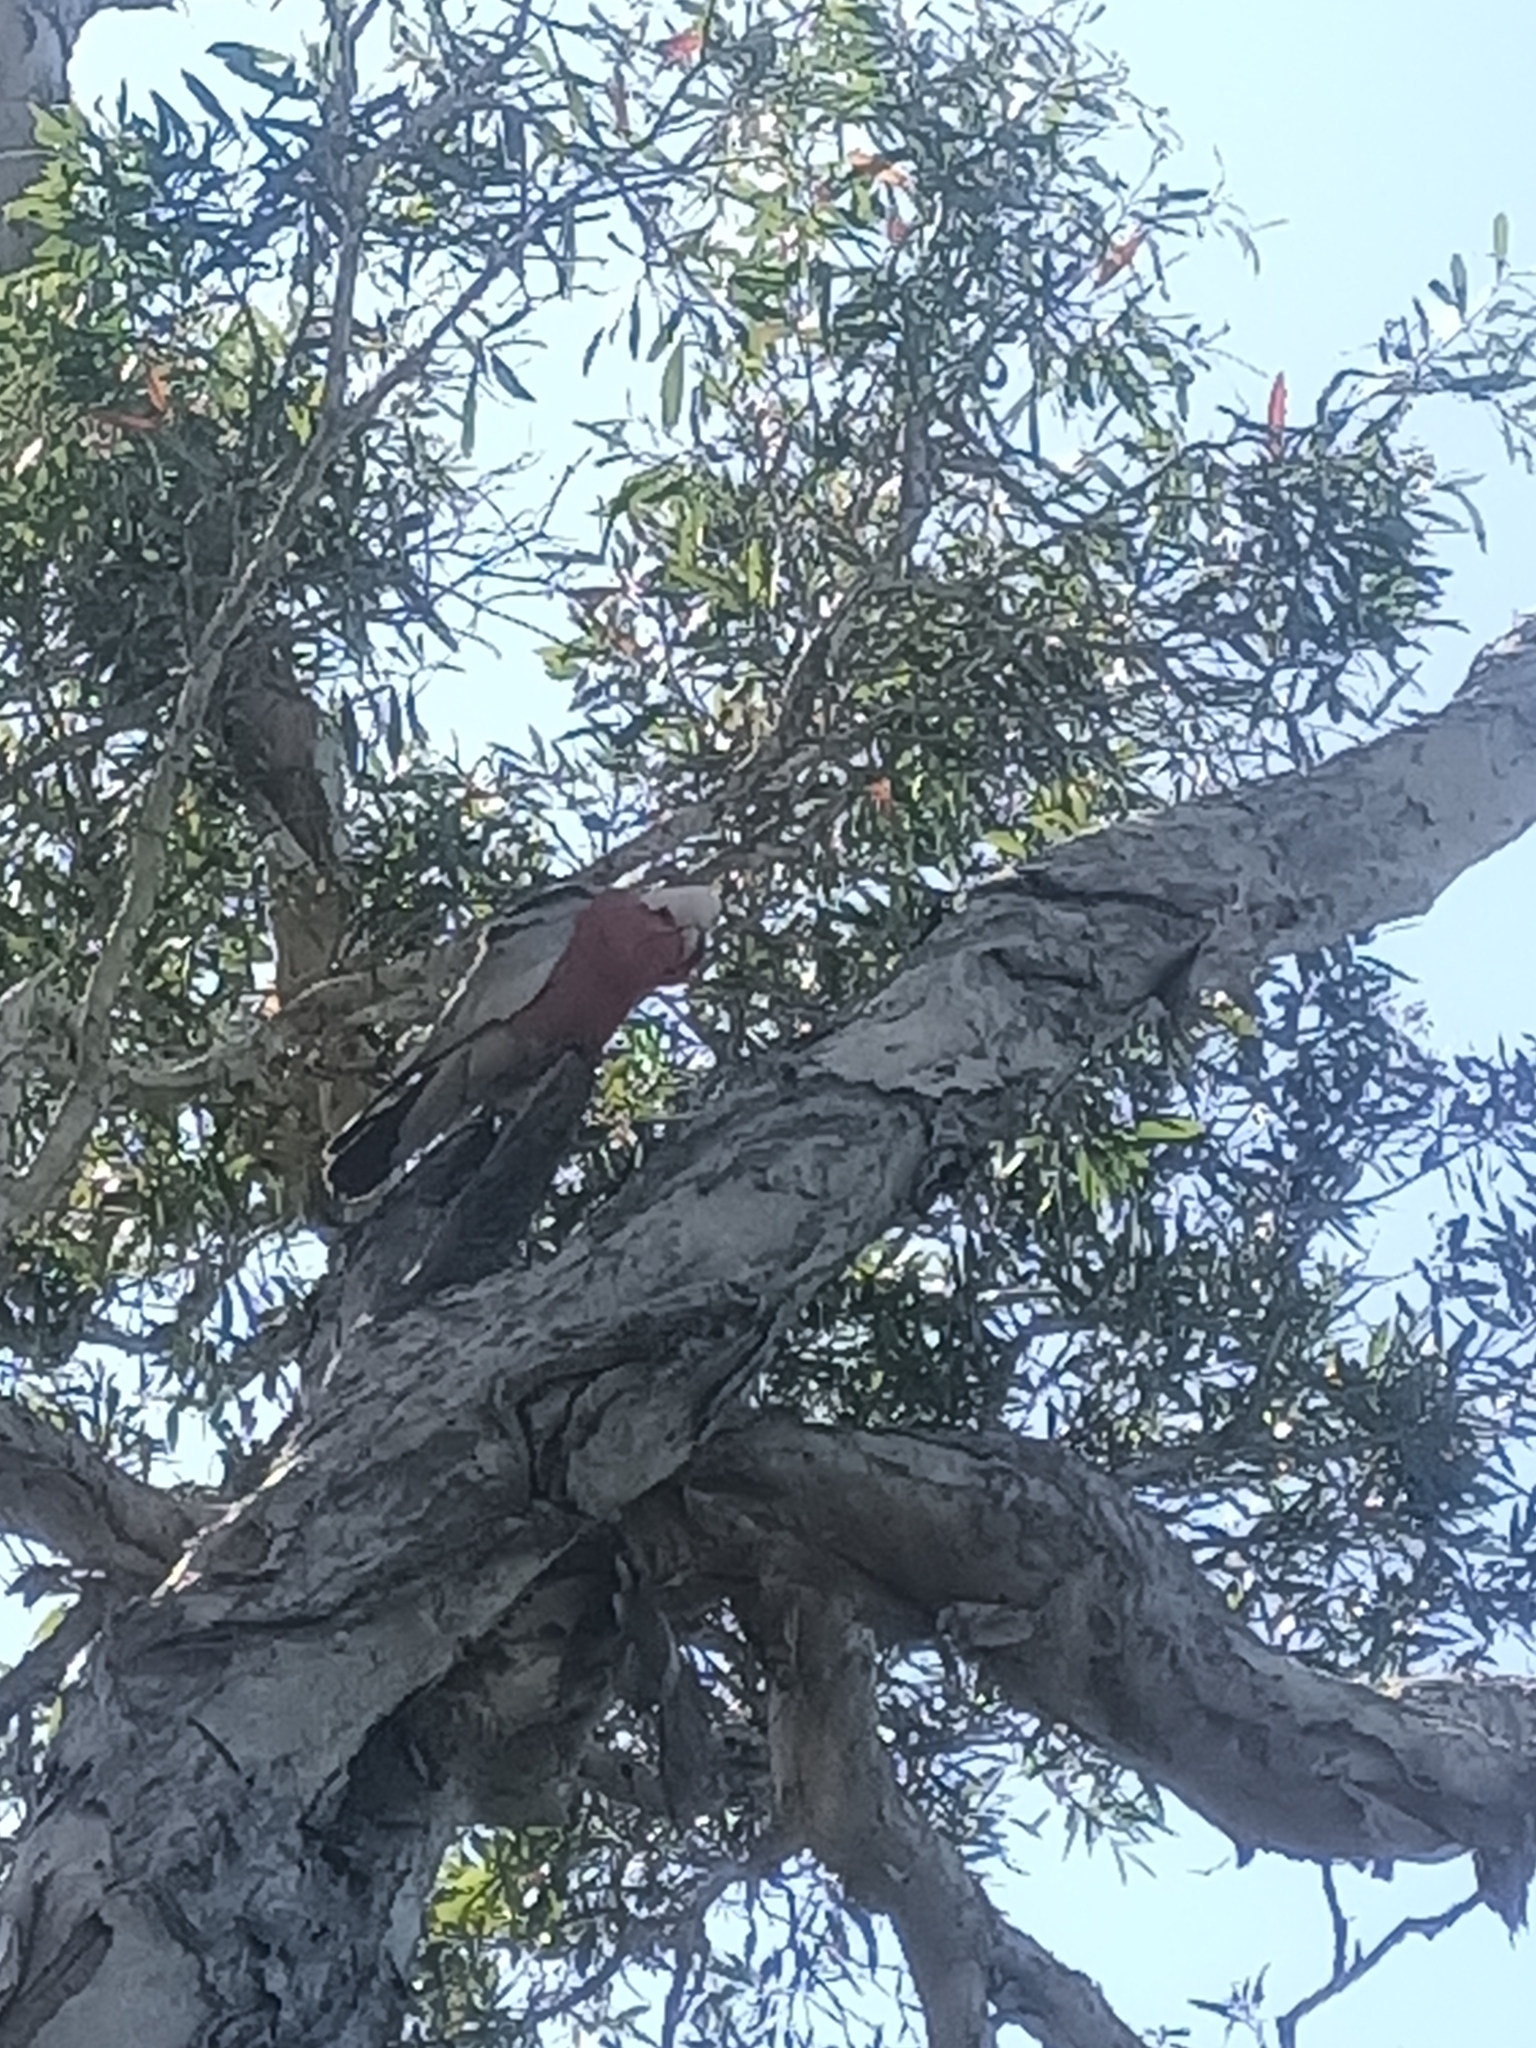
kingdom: Animalia
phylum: Chordata
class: Aves
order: Psittaciformes
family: Psittacidae
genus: Eolophus
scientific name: Eolophus roseicapilla
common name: Galah
